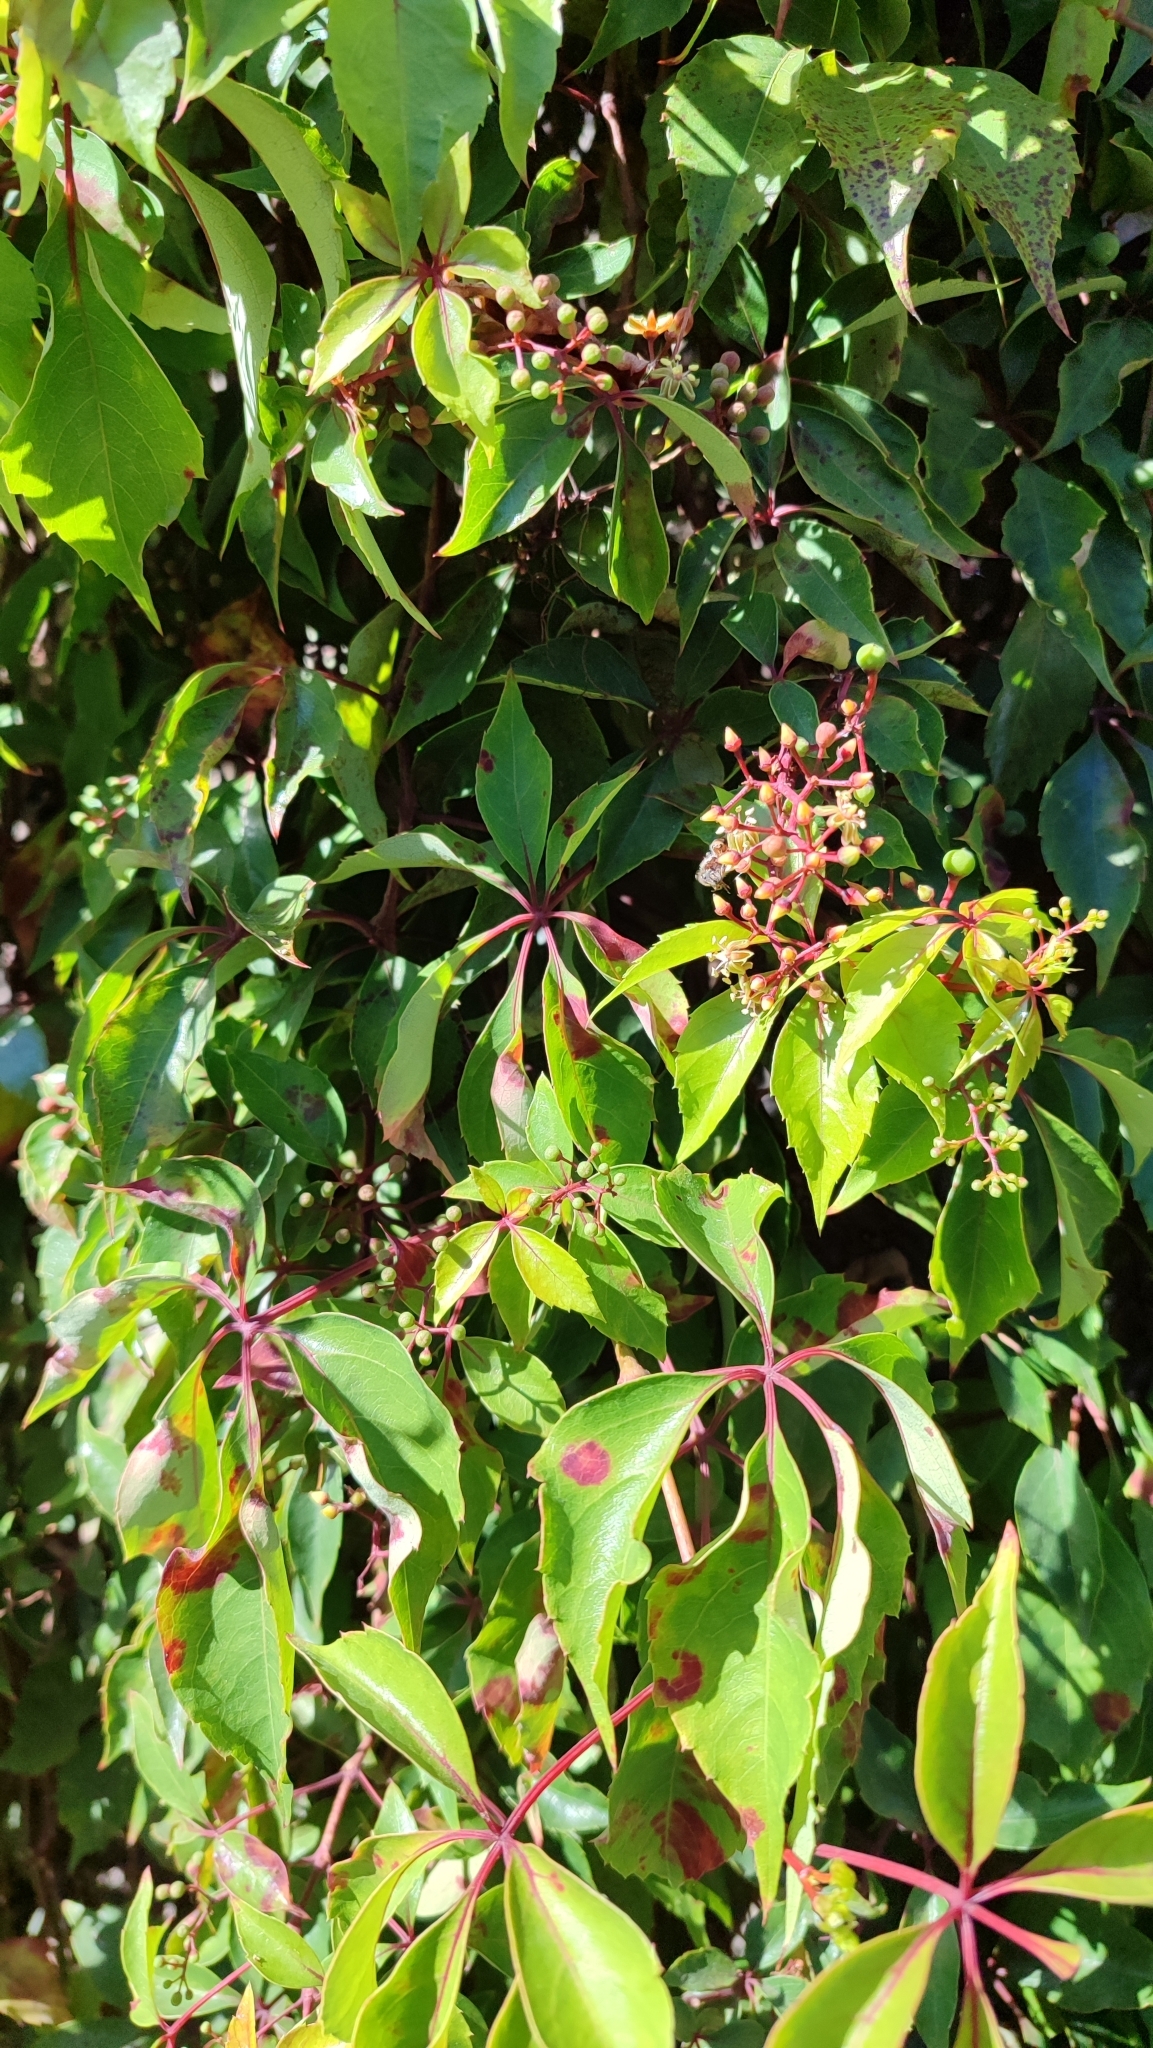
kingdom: Plantae
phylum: Tracheophyta
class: Magnoliopsida
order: Vitales
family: Vitaceae
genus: Parthenocissus
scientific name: Parthenocissus quinquefolia
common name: Virginia-creeper
